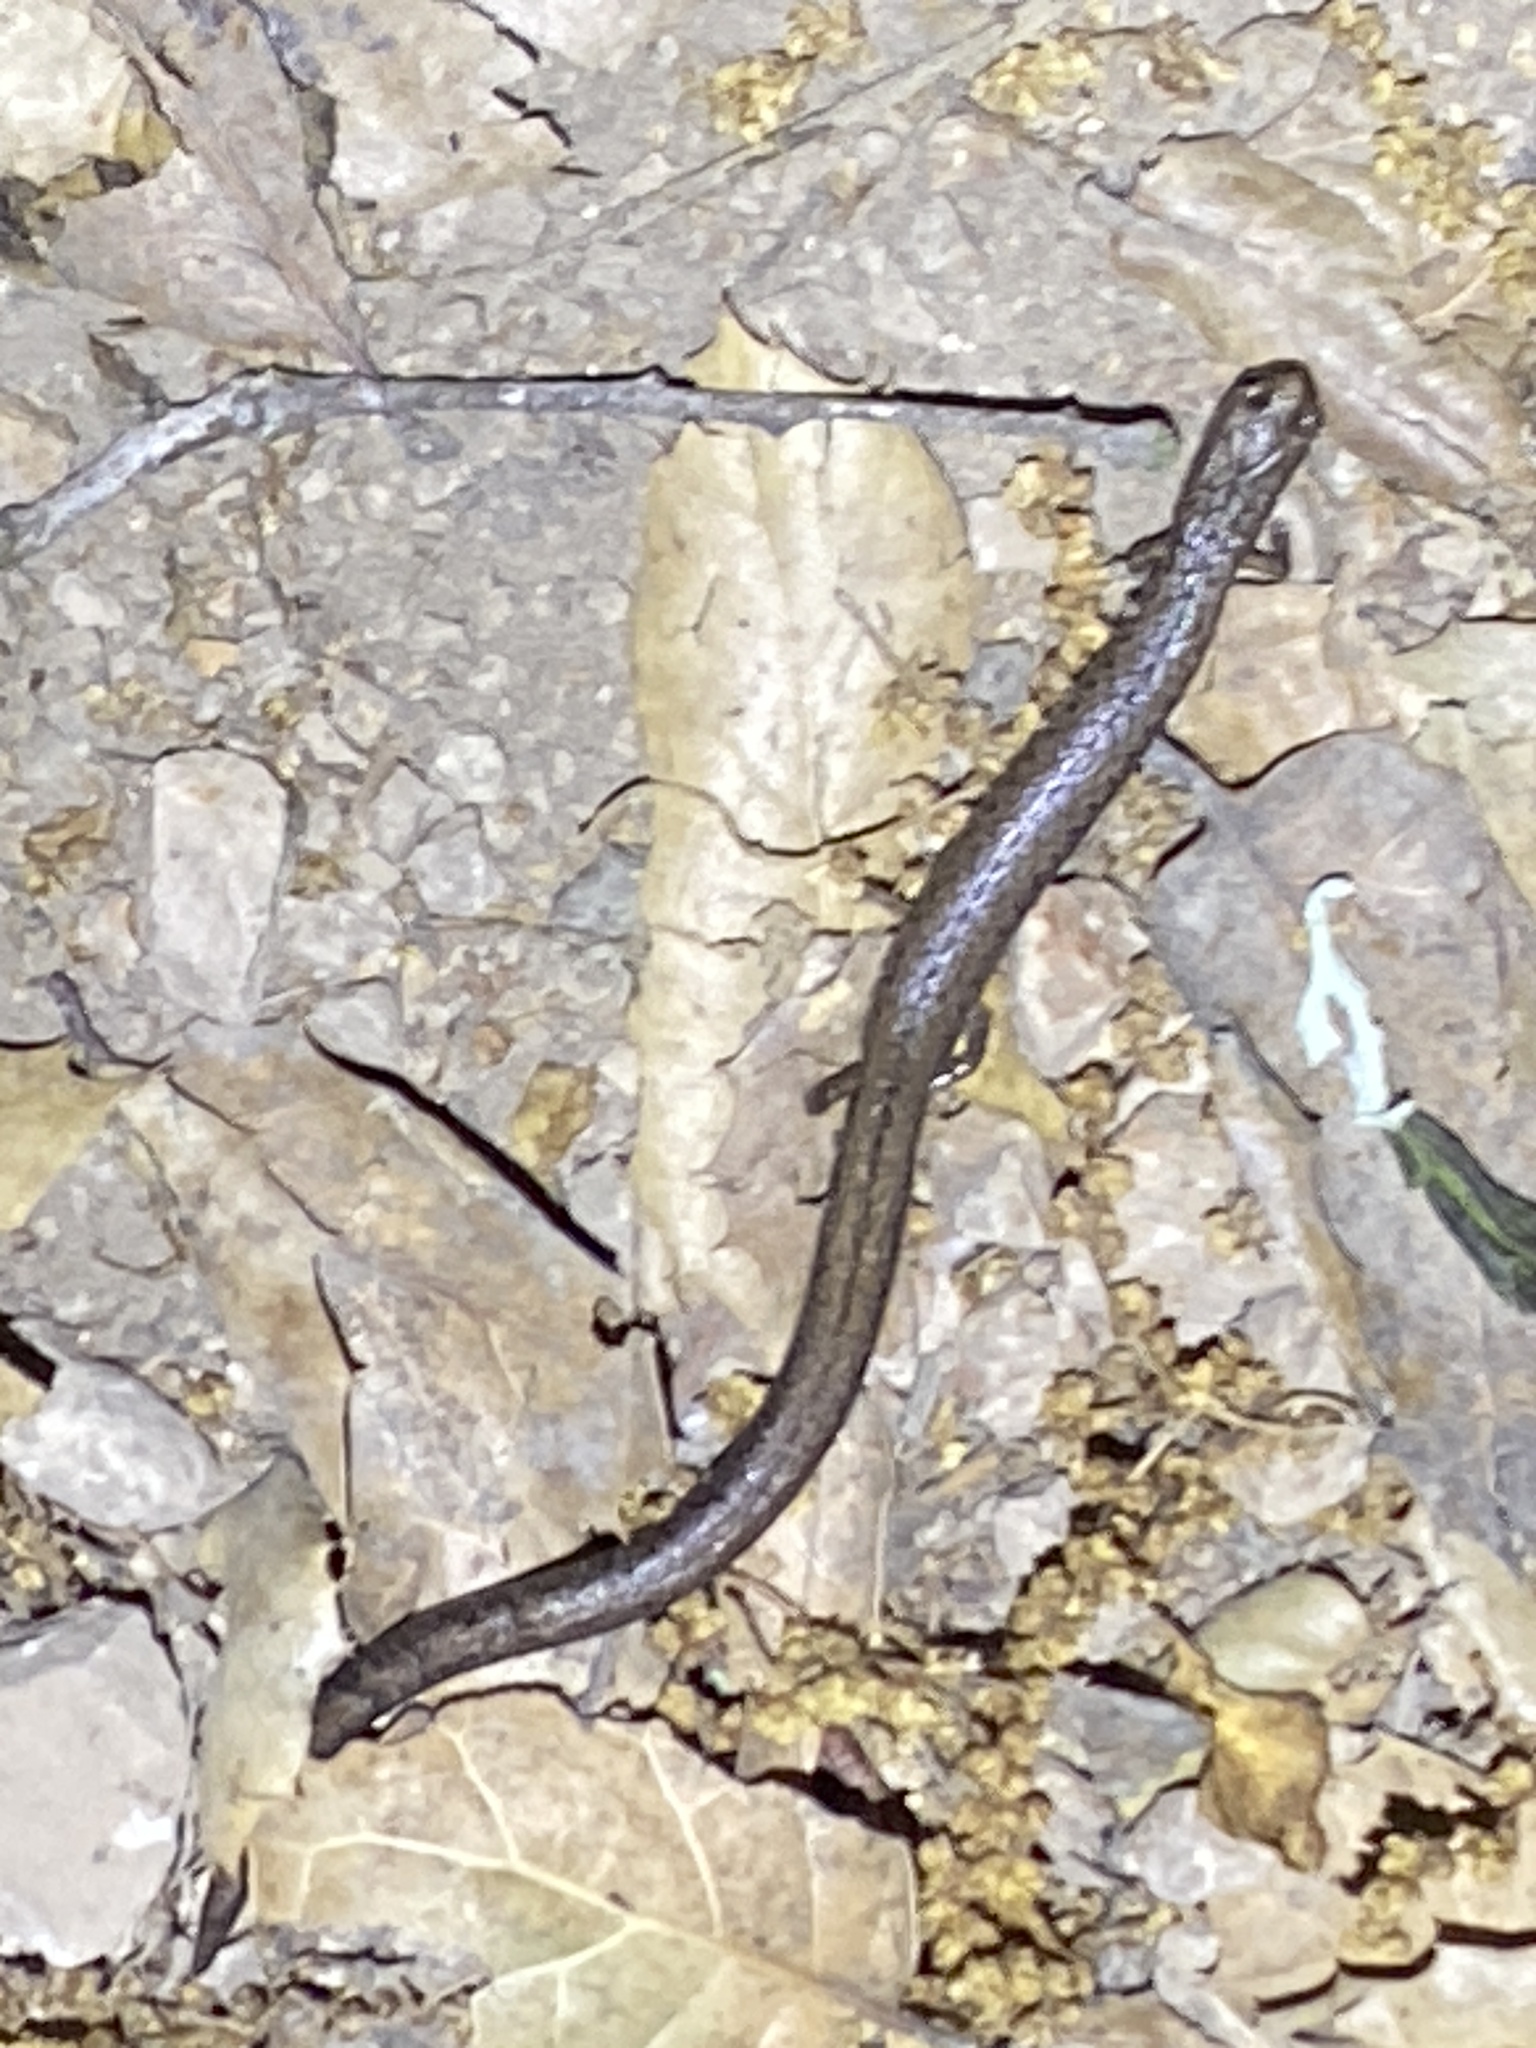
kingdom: Animalia
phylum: Chordata
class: Amphibia
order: Caudata
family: Plethodontidae
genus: Batrachoseps
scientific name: Batrachoseps attenuatus
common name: California slender salamander
